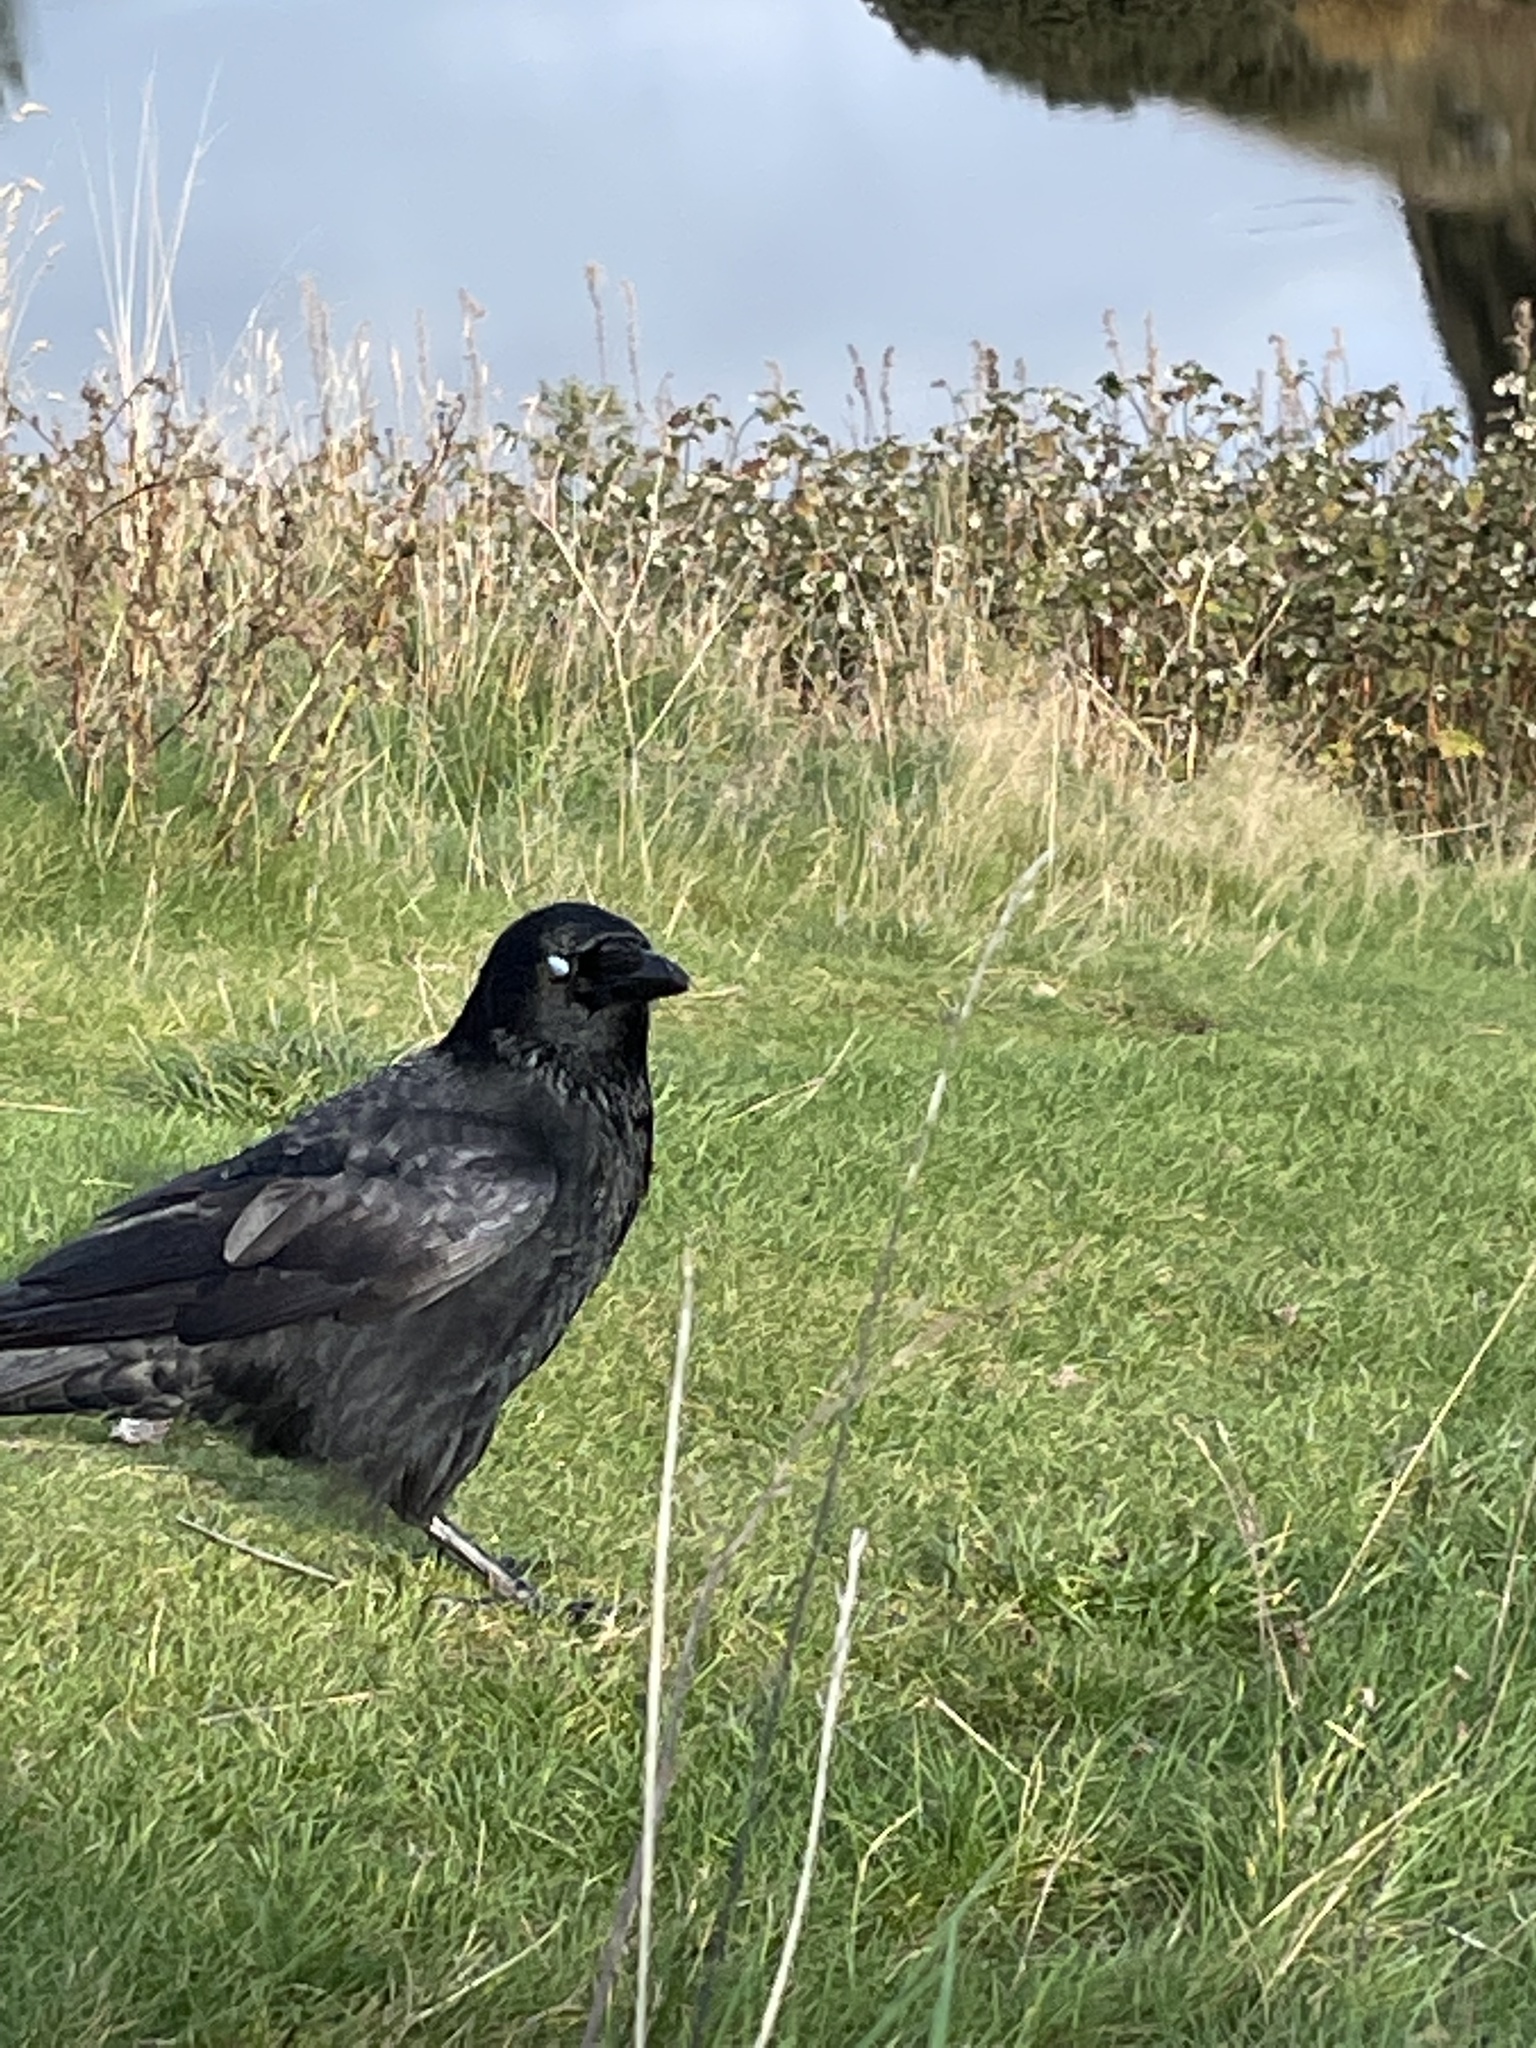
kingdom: Animalia
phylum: Chordata
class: Aves
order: Passeriformes
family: Corvidae
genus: Corvus
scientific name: Corvus corone
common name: Carrion crow
